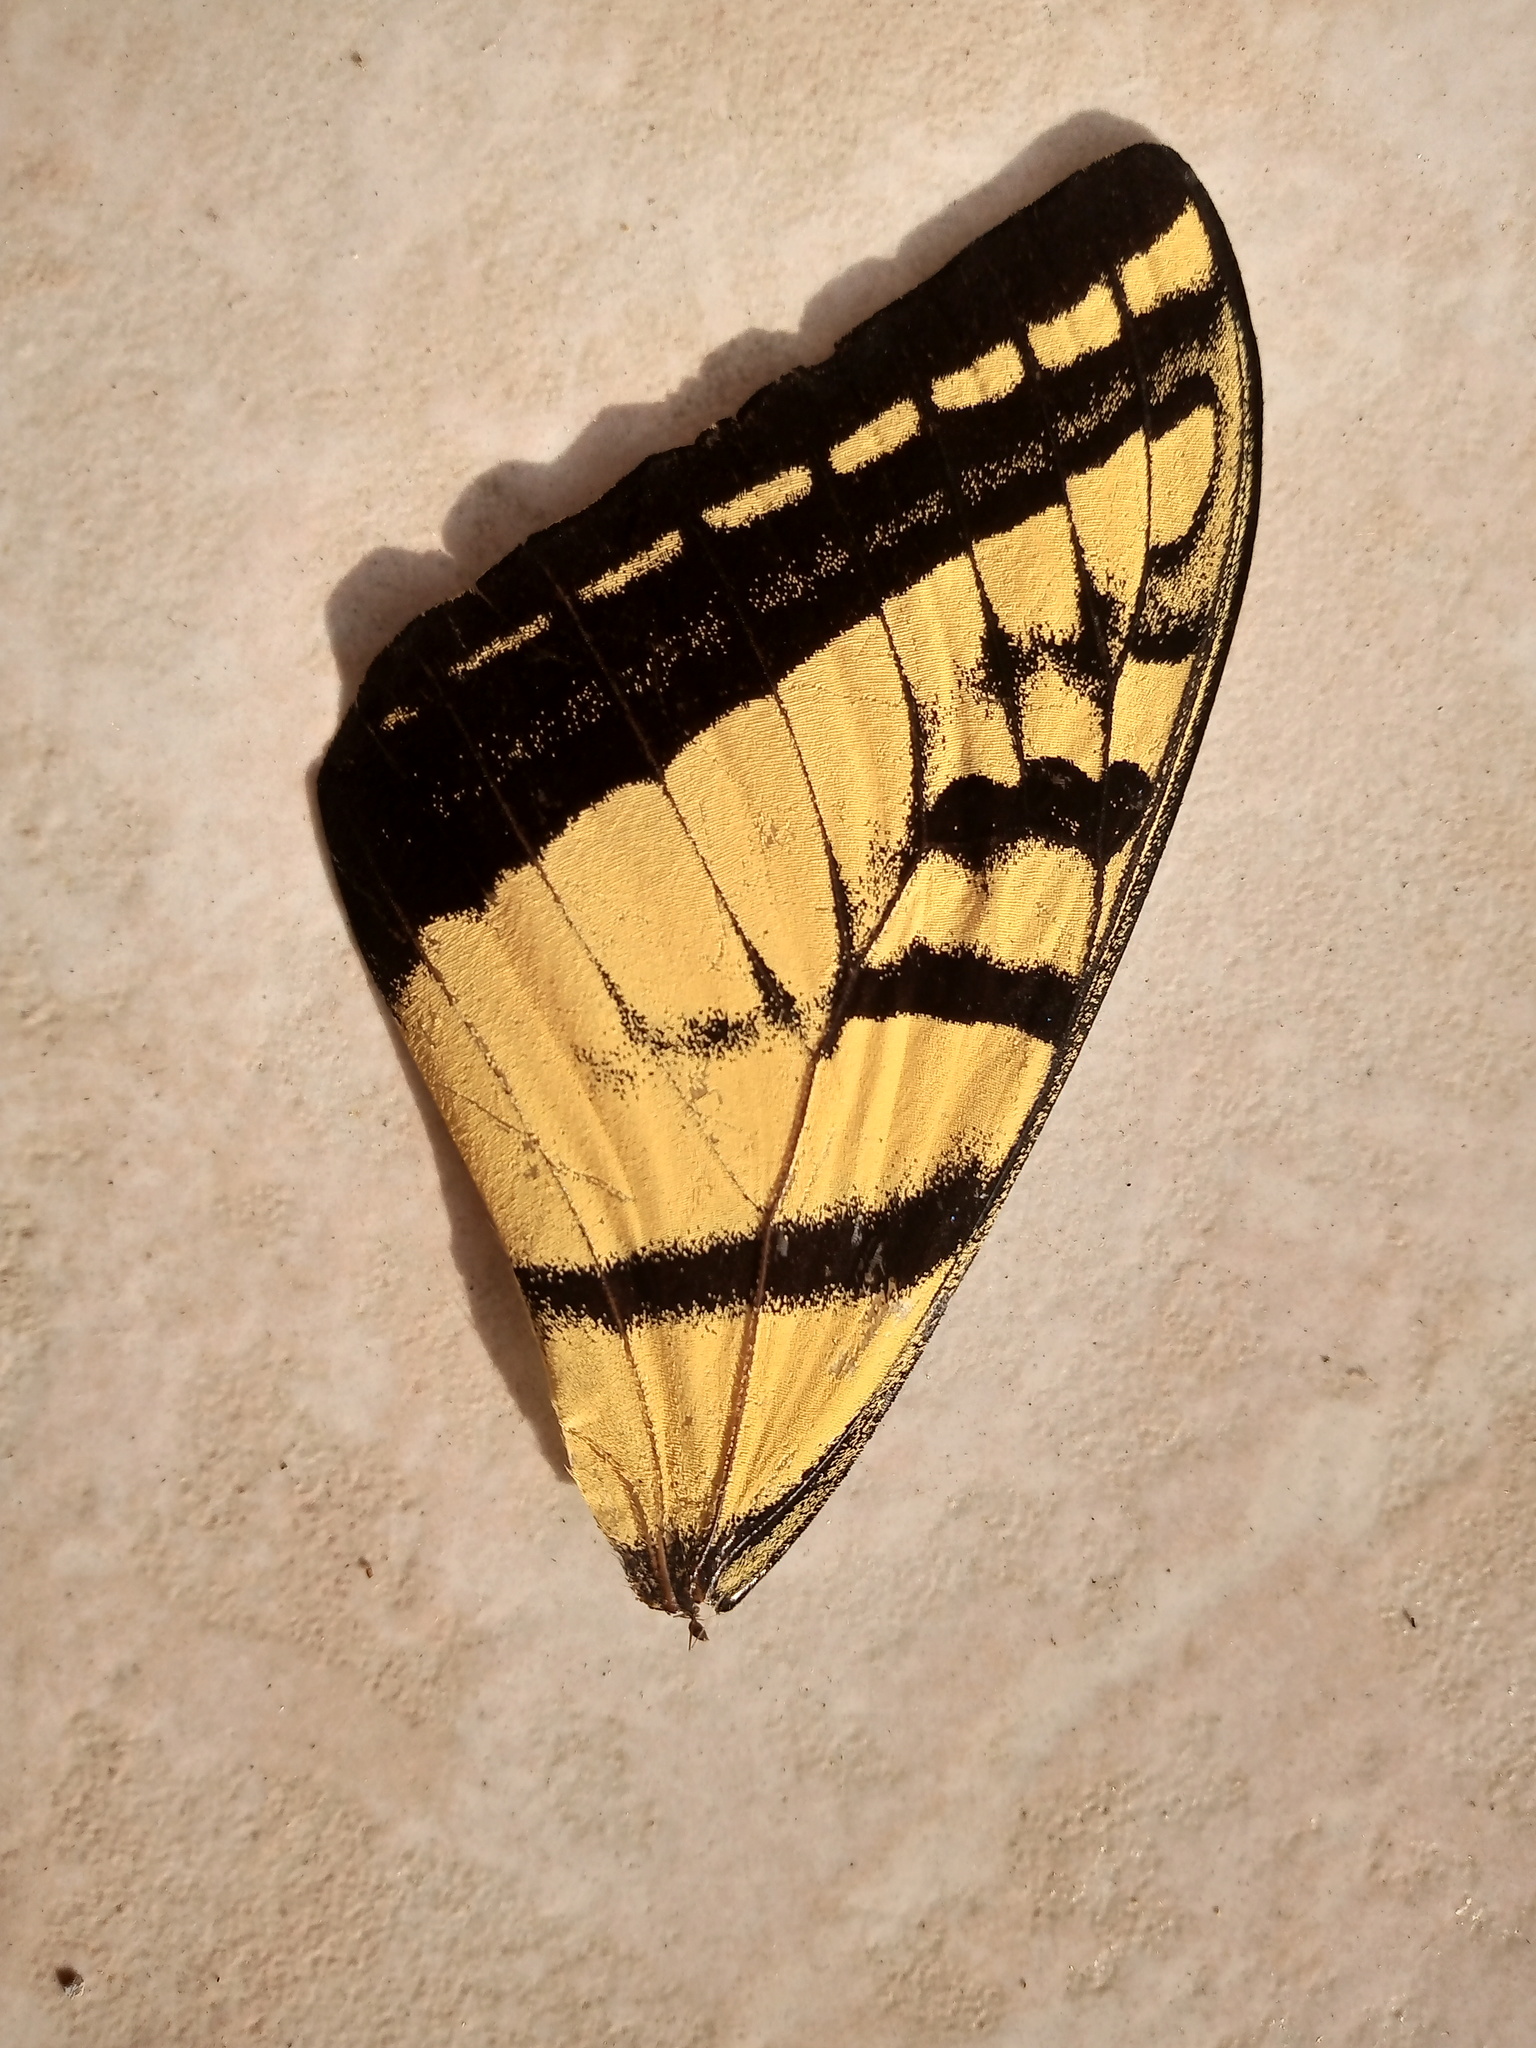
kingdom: Animalia
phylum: Arthropoda
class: Insecta
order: Lepidoptera
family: Papilionidae
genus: Papilio
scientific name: Papilio multicaudata
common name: Two-tailed tiger swallowtail
